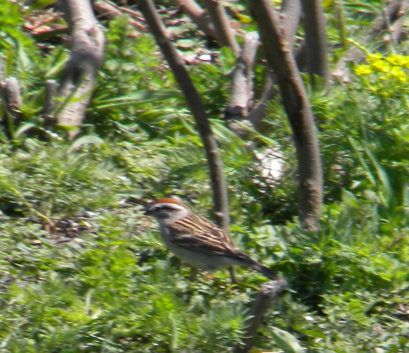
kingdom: Animalia
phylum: Chordata
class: Aves
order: Passeriformes
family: Passerellidae
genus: Spizella
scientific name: Spizella passerina
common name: Chipping sparrow
